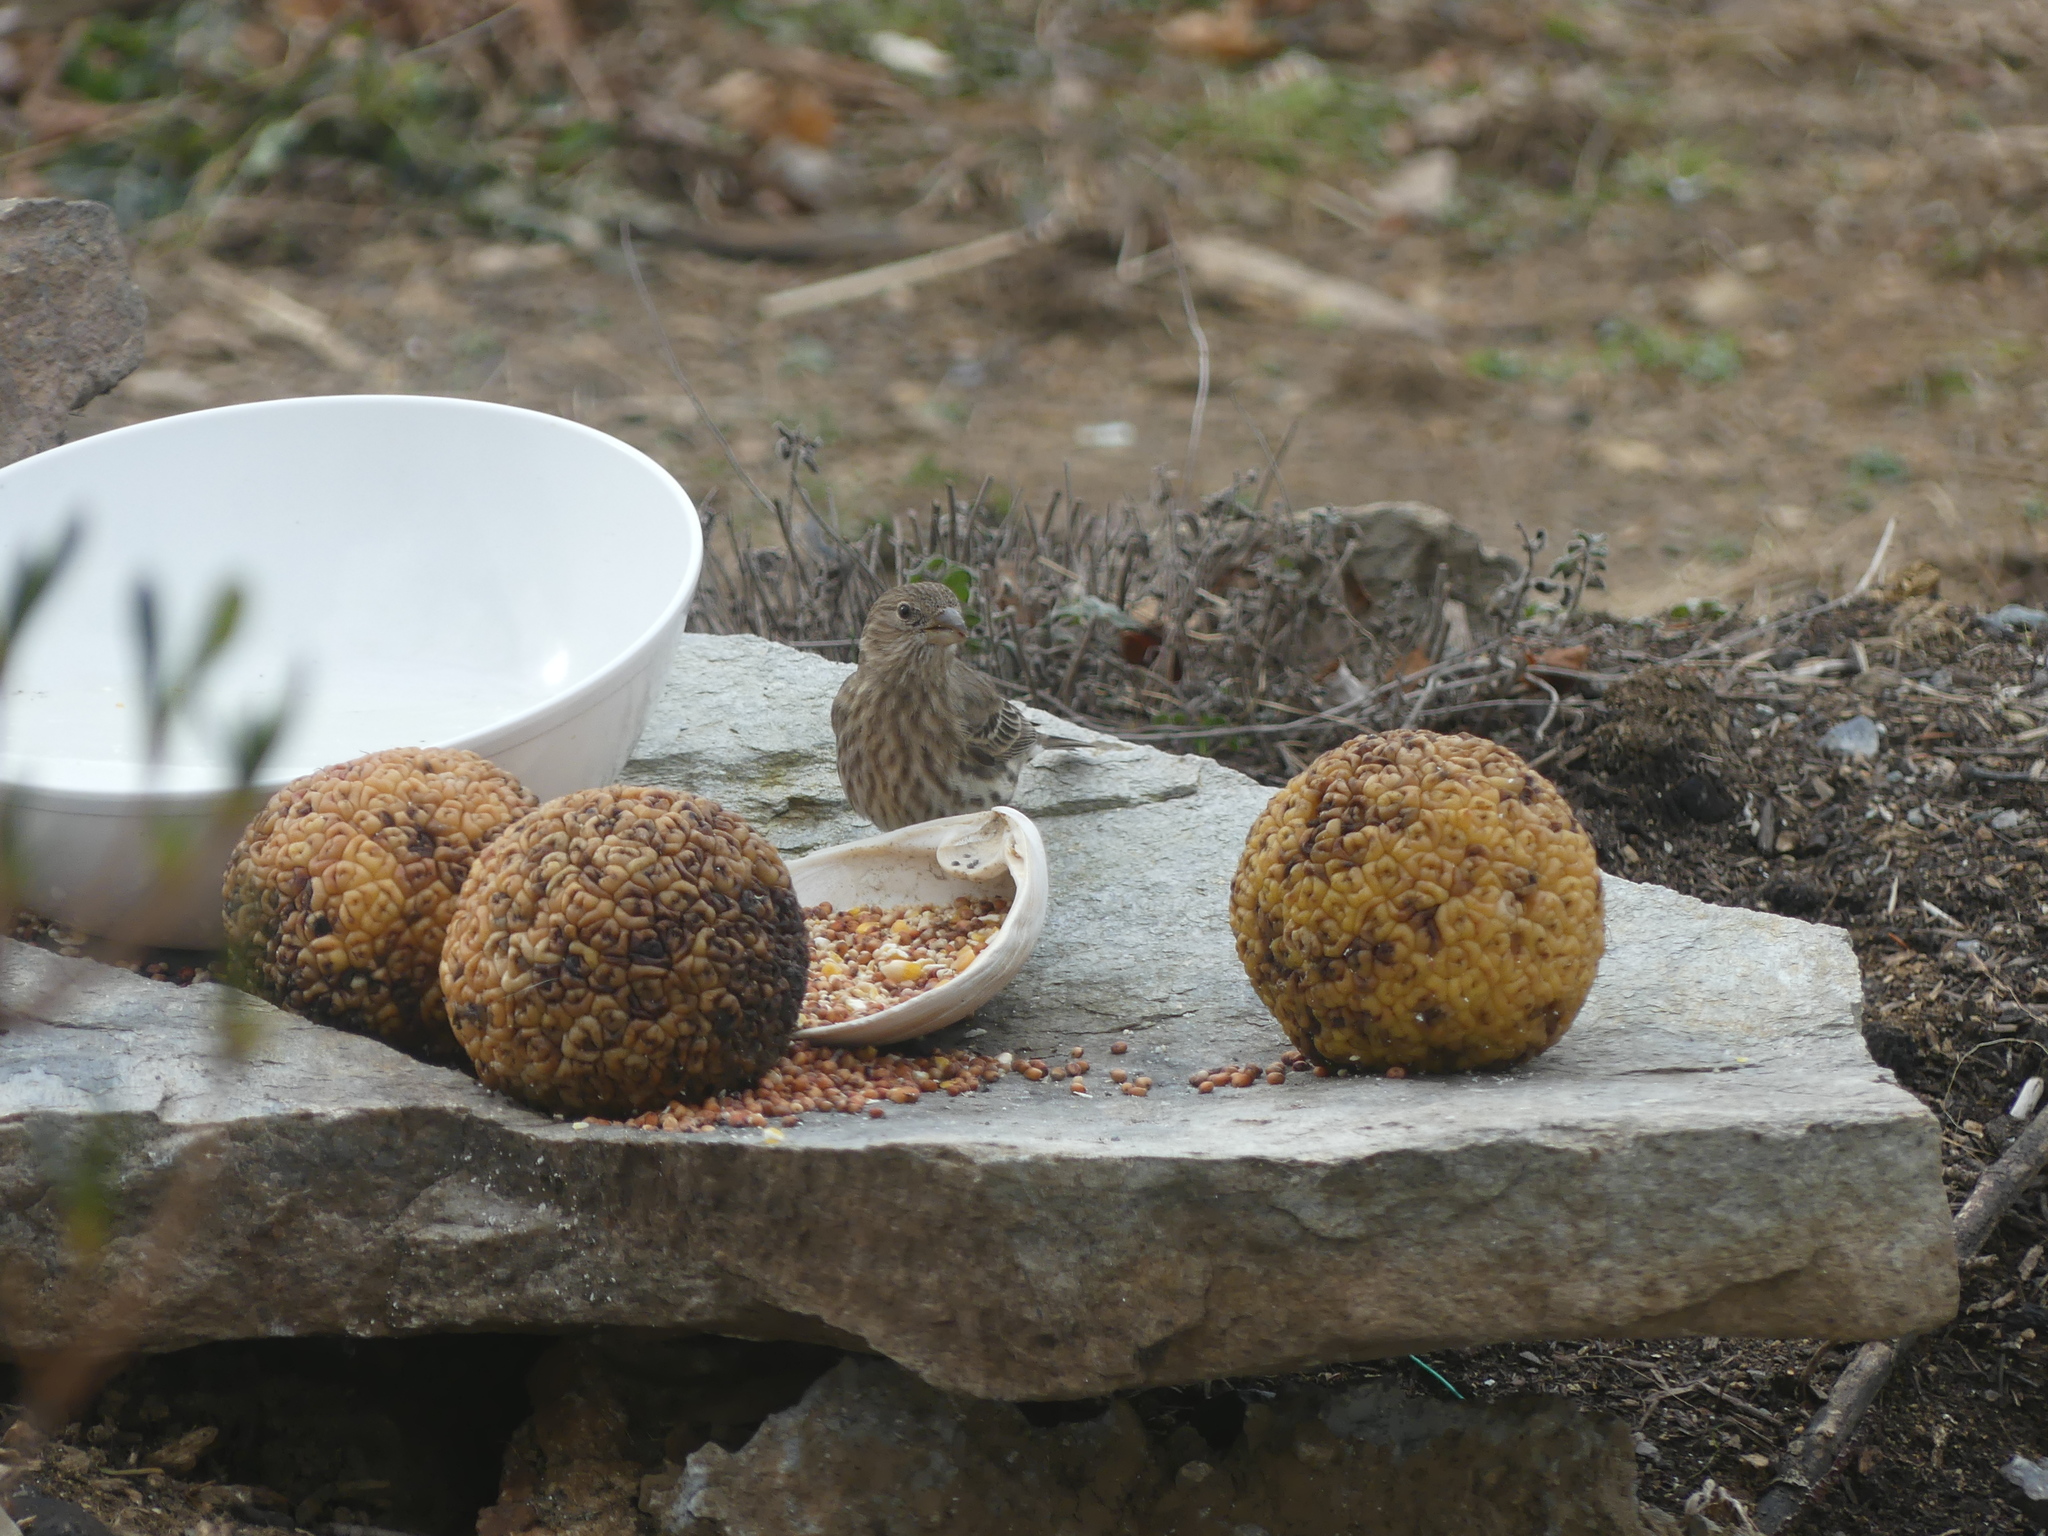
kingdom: Animalia
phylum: Chordata
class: Aves
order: Passeriformes
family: Fringillidae
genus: Haemorhous
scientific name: Haemorhous mexicanus
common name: House finch
